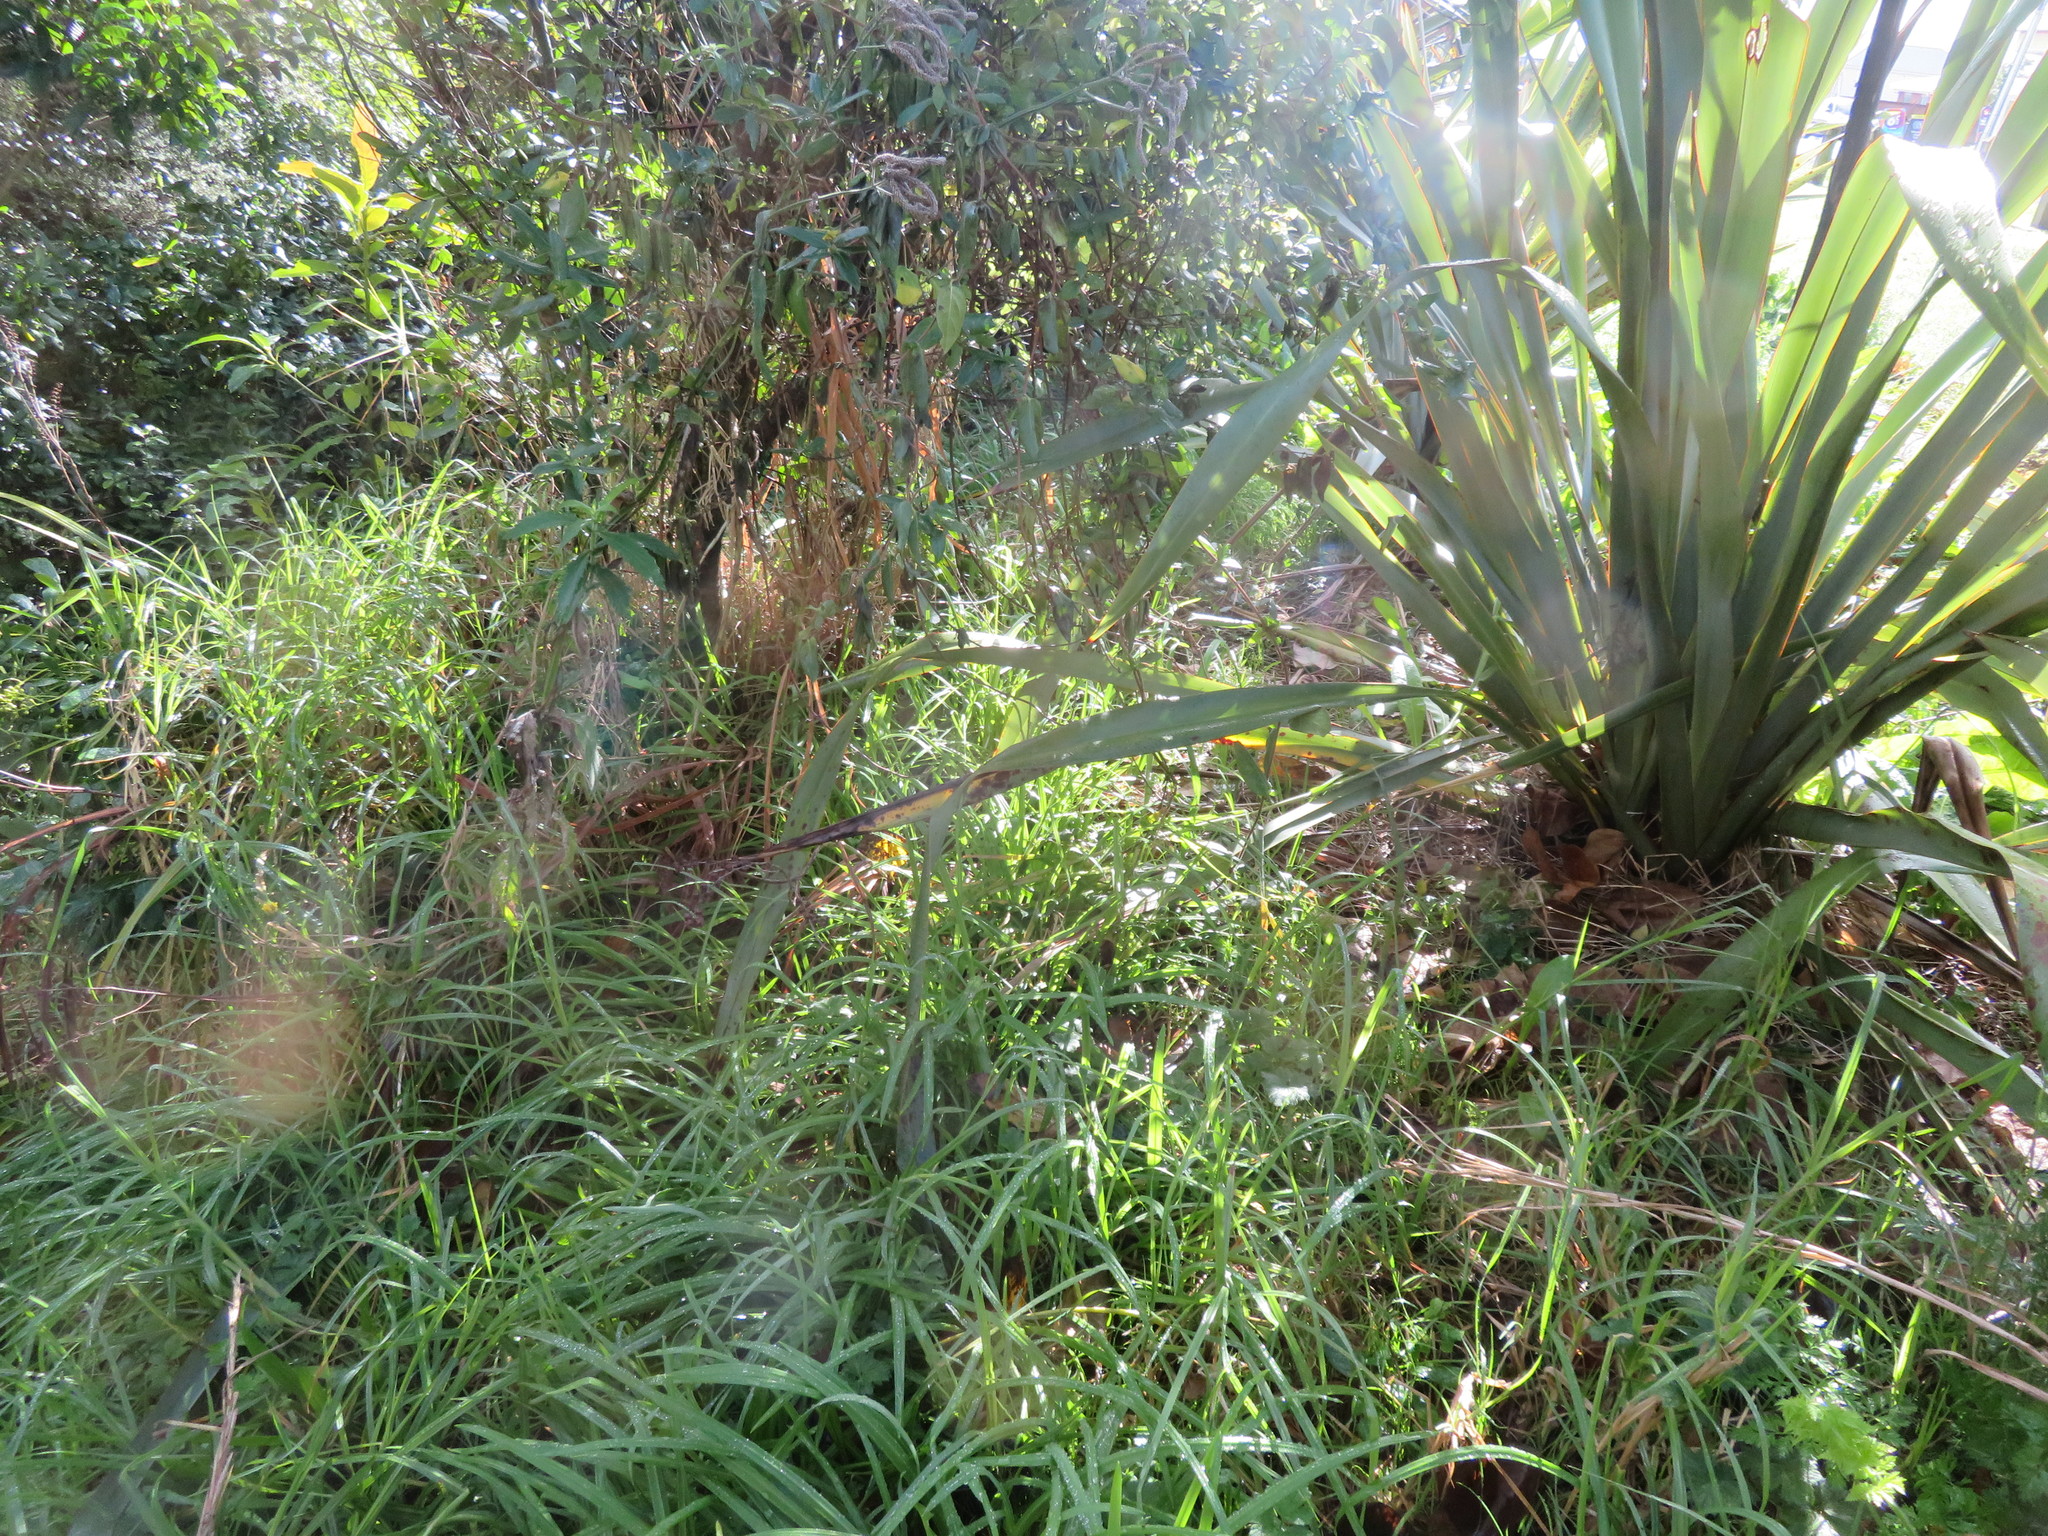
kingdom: Plantae
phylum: Tracheophyta
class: Magnoliopsida
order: Dipsacales
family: Caprifoliaceae
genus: Lonicera
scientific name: Lonicera japonica
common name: Japanese honeysuckle
